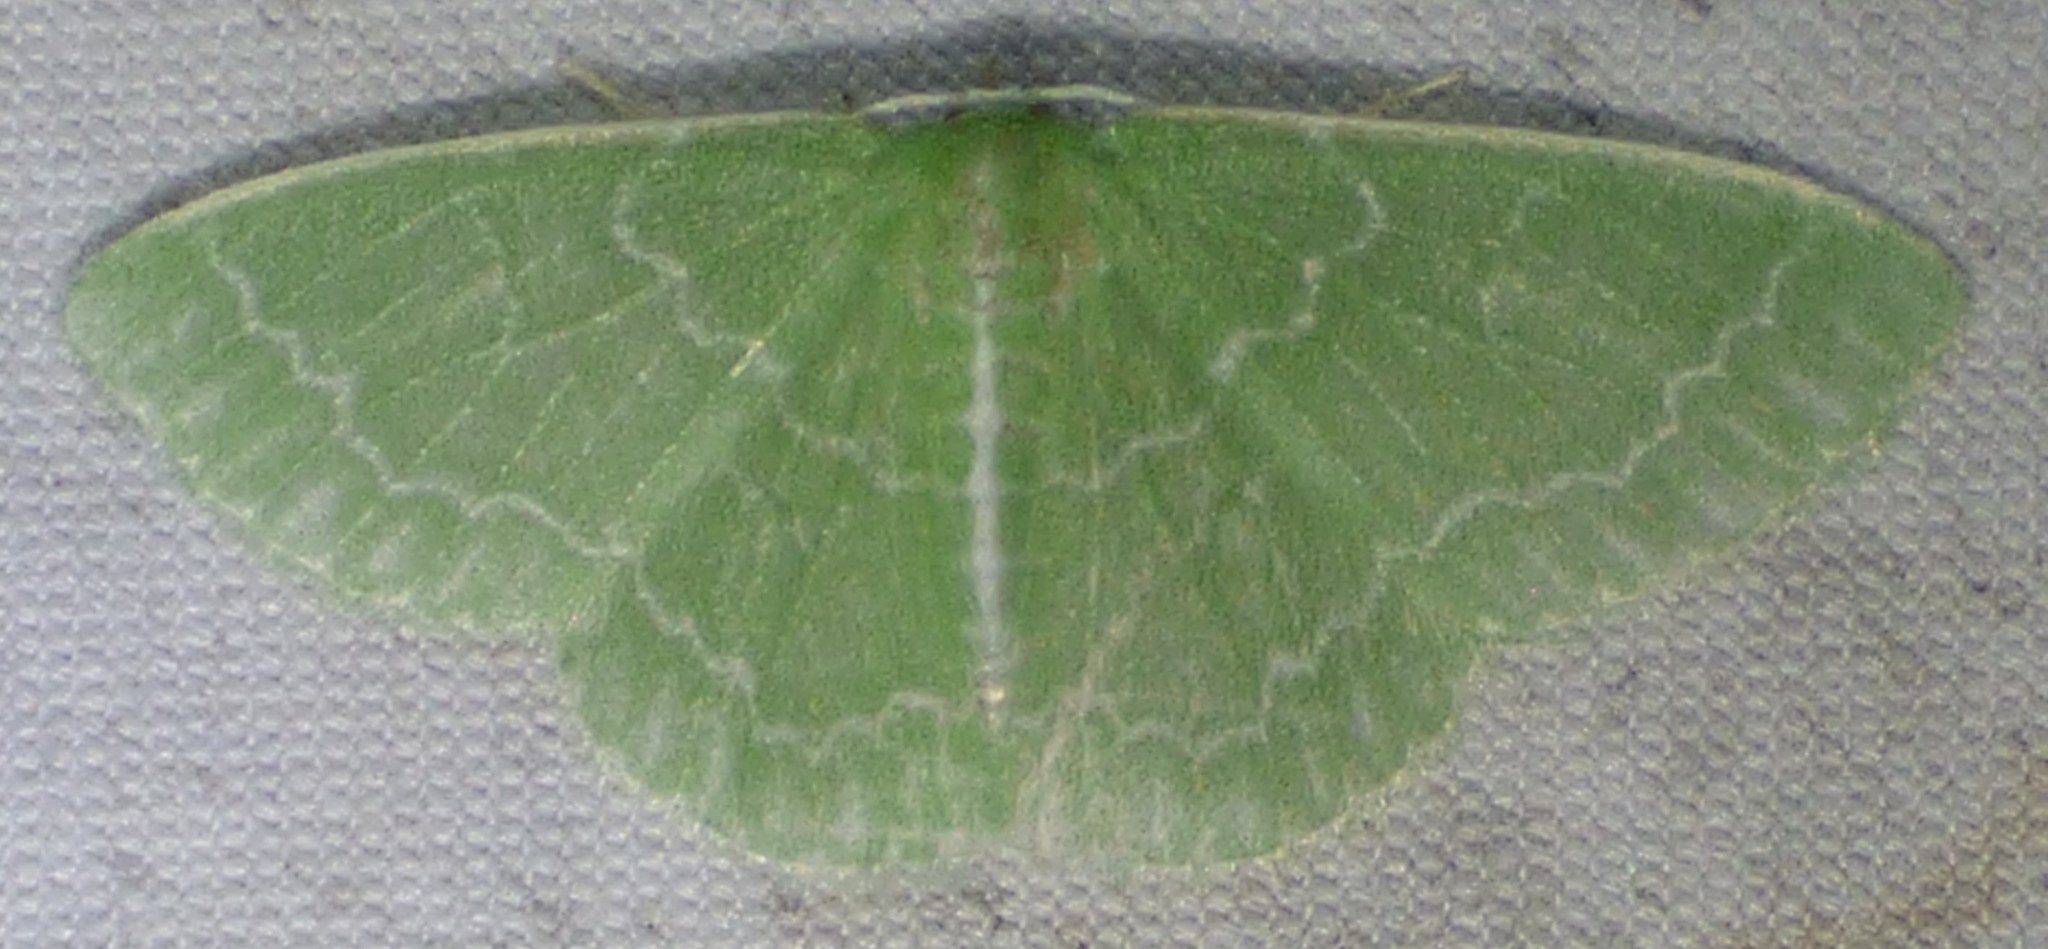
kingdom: Animalia
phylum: Arthropoda
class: Insecta
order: Lepidoptera
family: Geometridae
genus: Synchlora
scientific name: Synchlora frondaria
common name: Southern emerald
